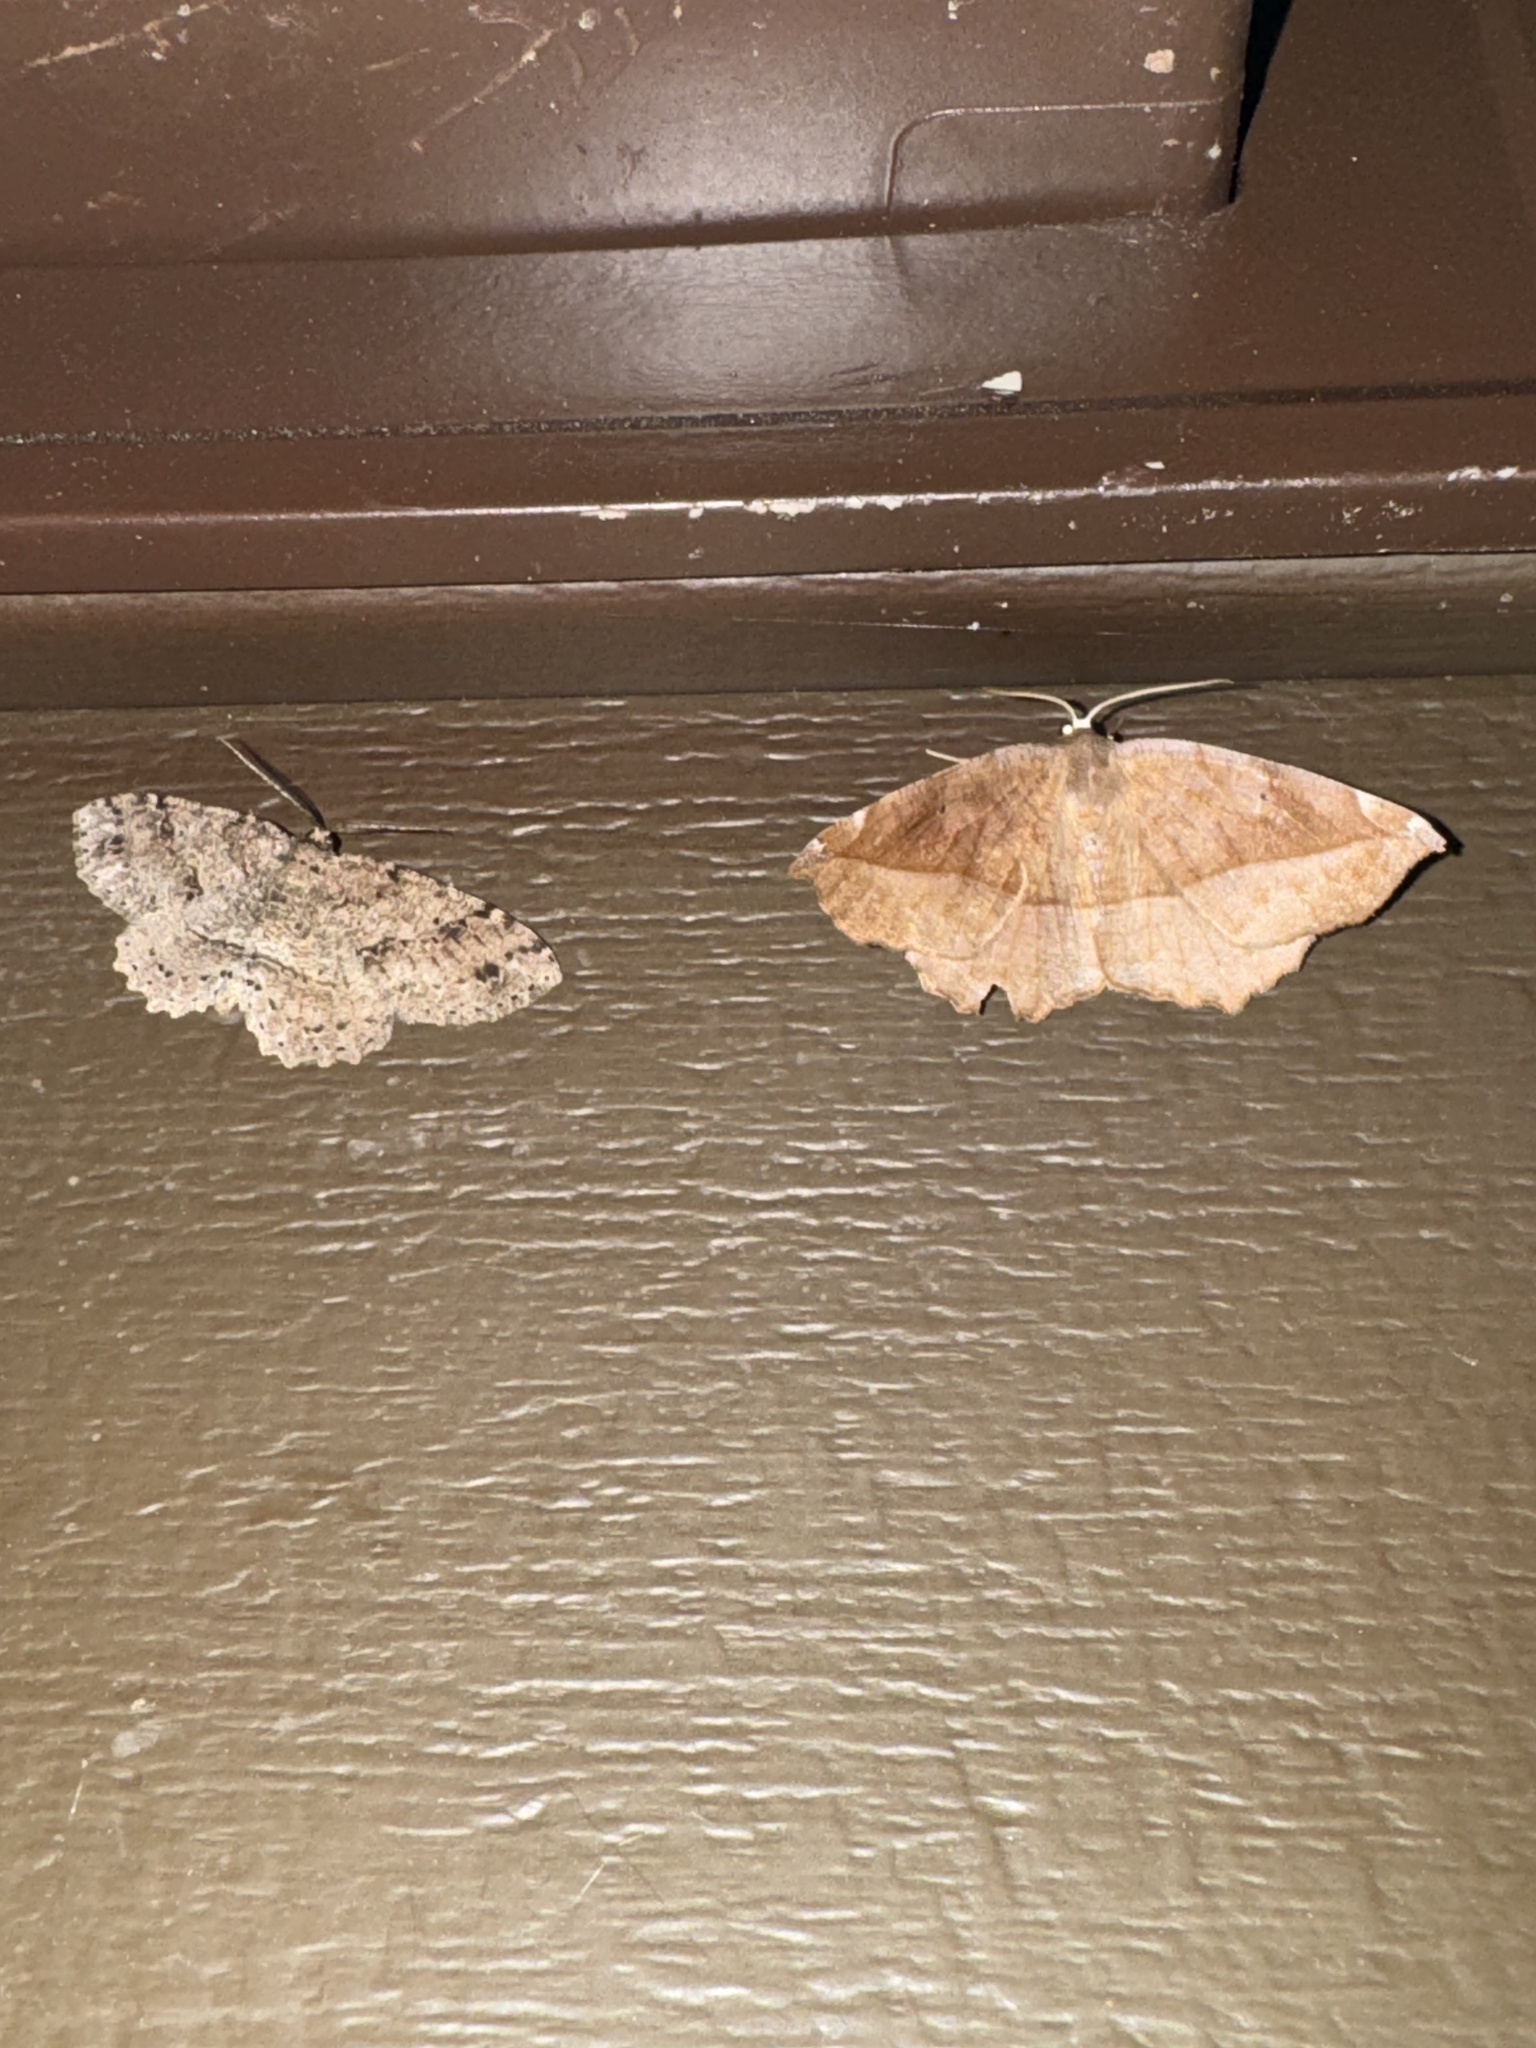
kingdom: Animalia
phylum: Arthropoda
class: Insecta
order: Lepidoptera
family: Geometridae
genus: Eutrapela
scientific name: Eutrapela clemataria
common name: Curved-toothed geometer
